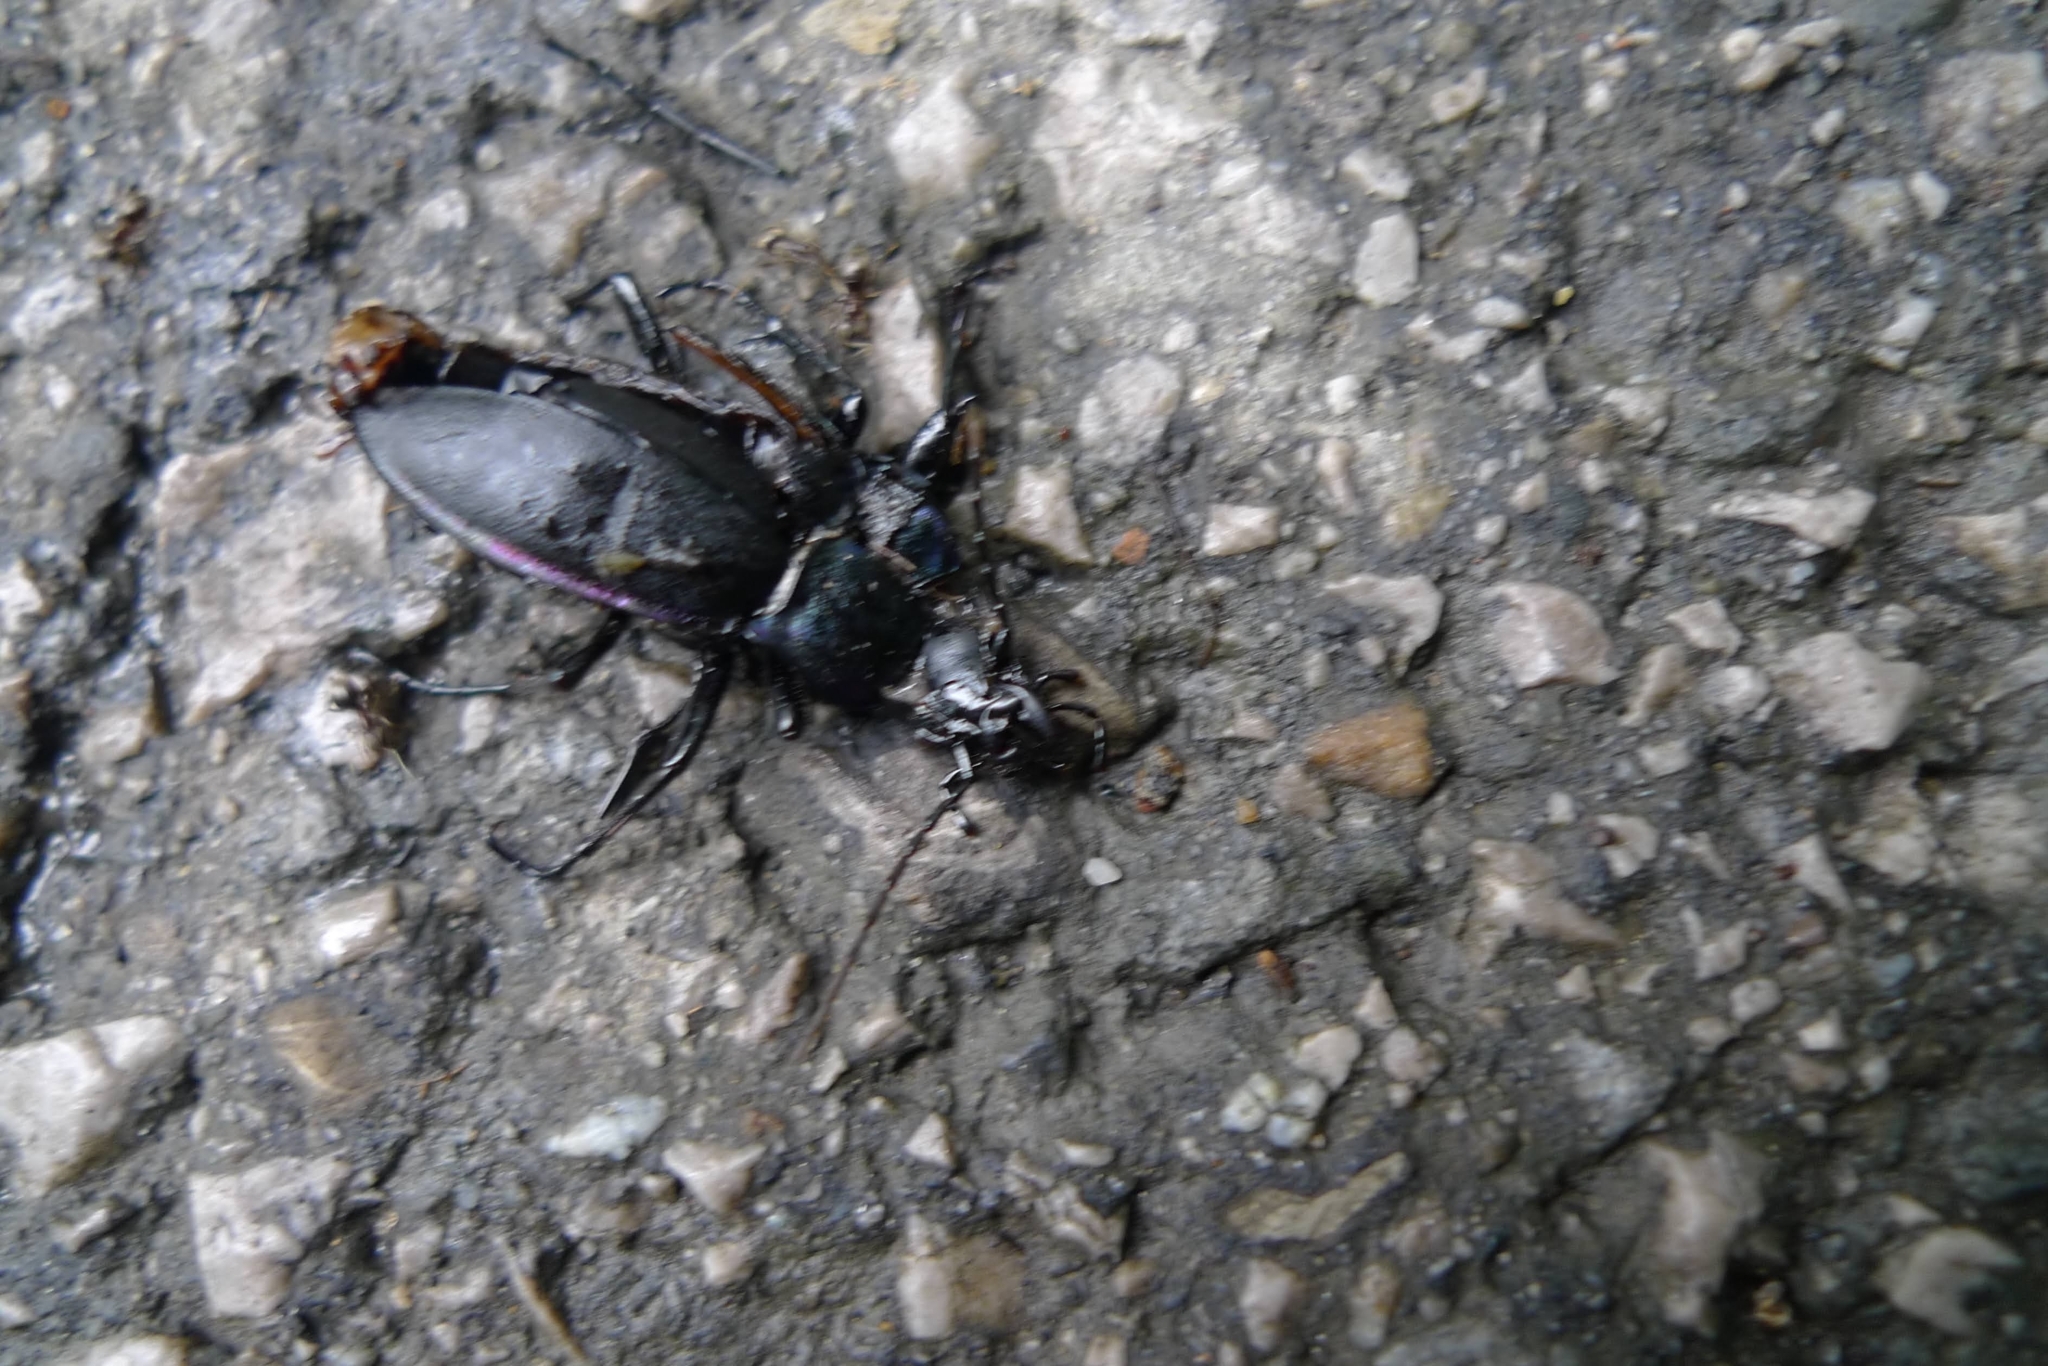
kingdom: Animalia
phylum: Arthropoda
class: Insecta
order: Coleoptera
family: Carabidae
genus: Carabus
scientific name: Carabus violaceus
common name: Violet ground beetle
